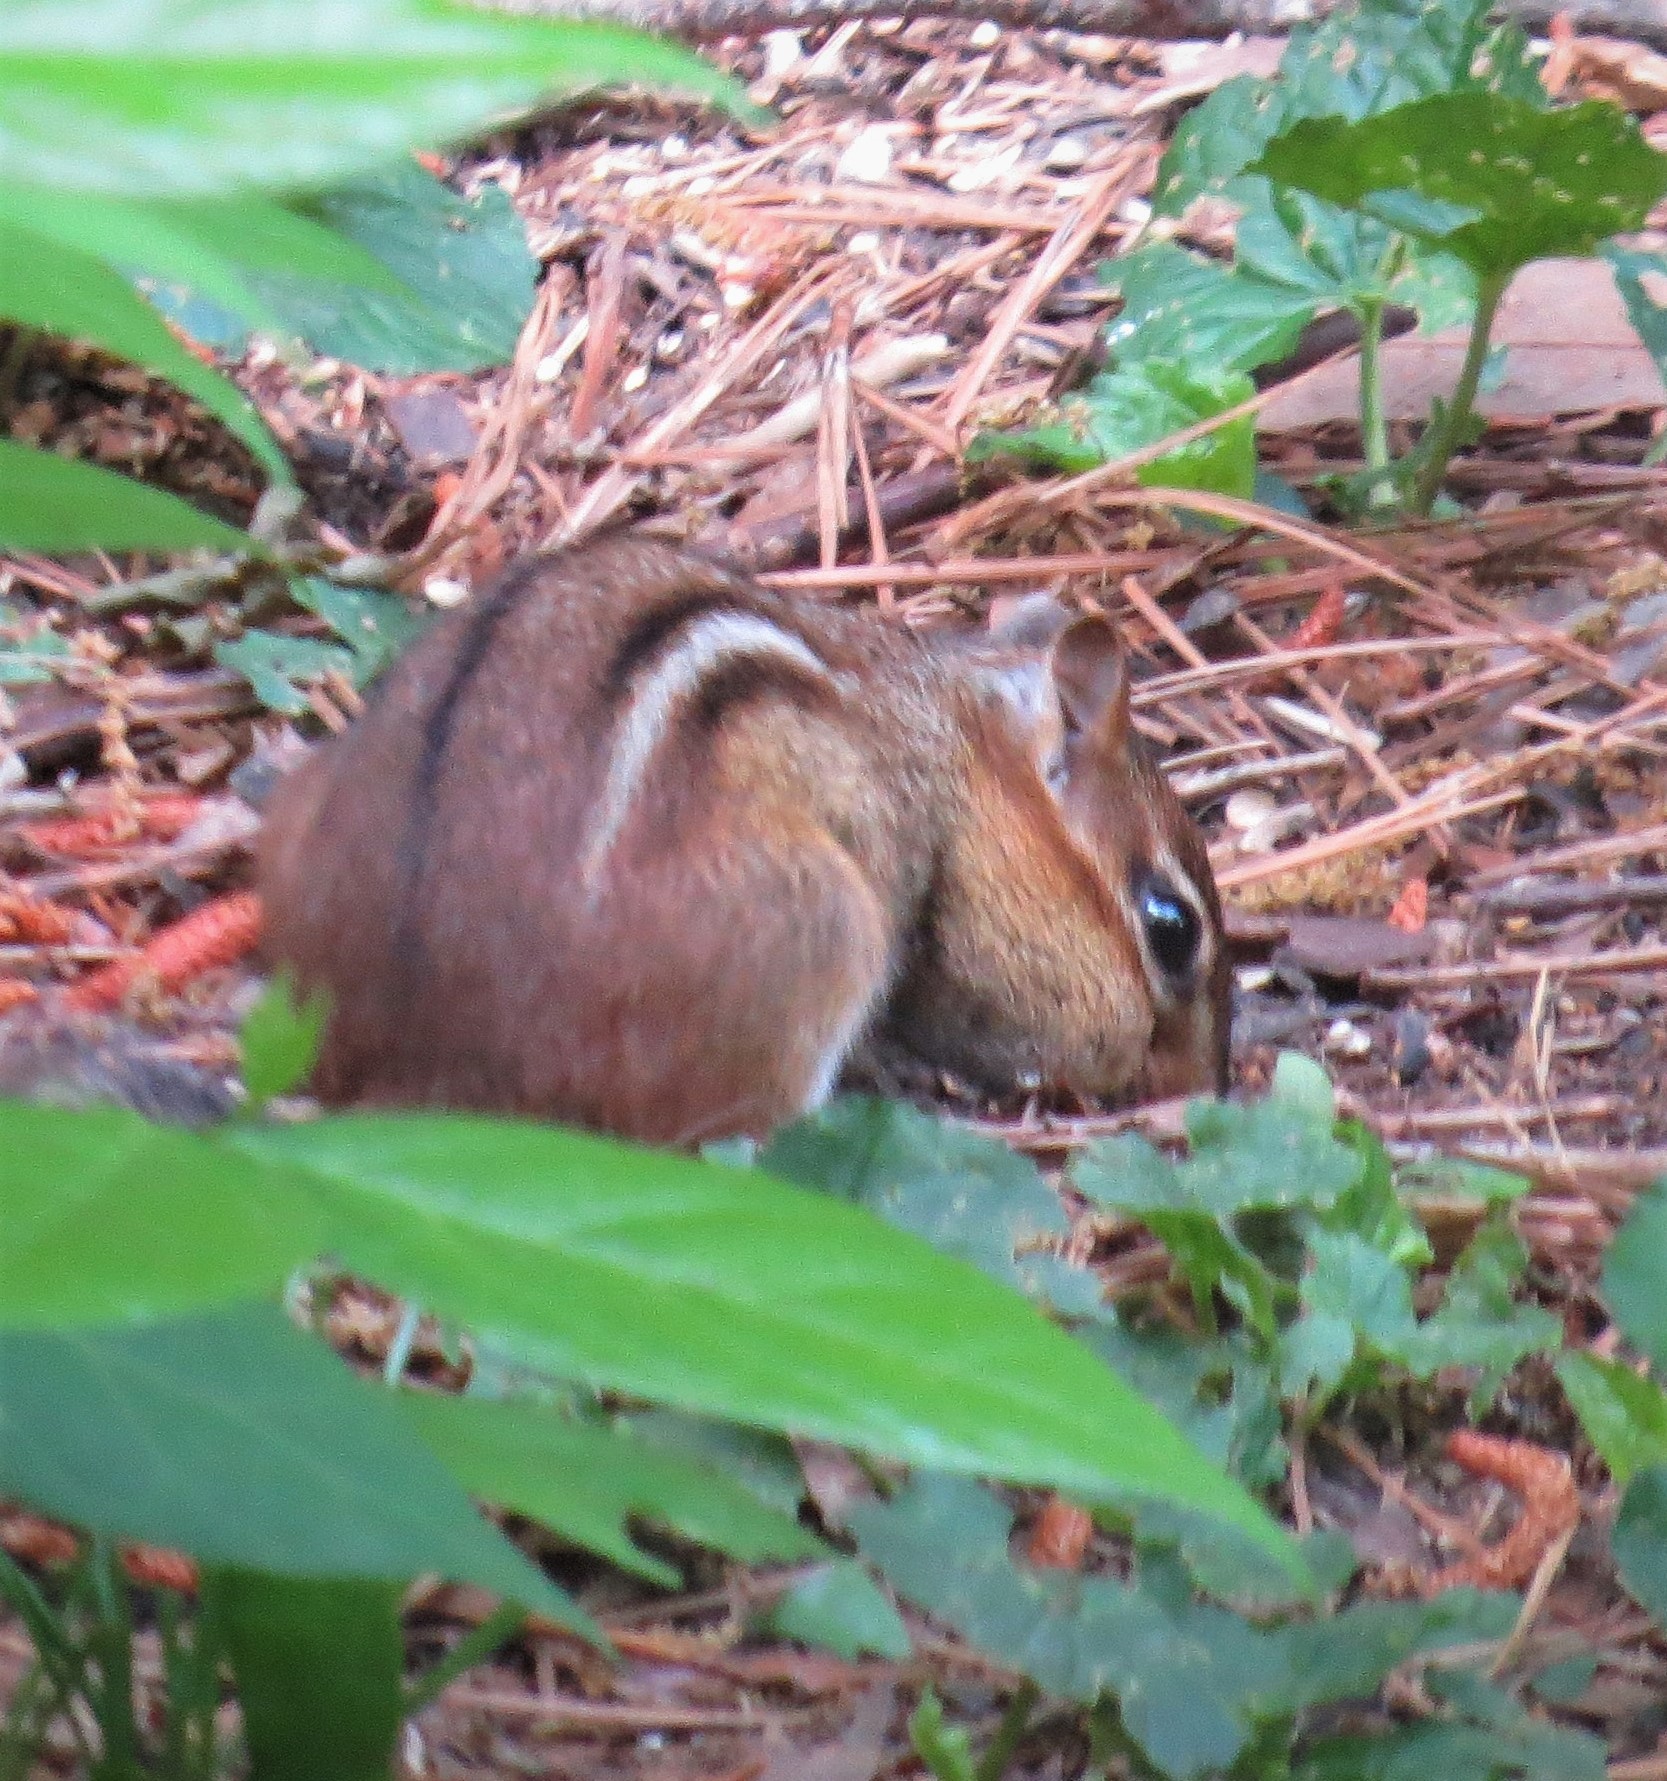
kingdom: Animalia
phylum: Chordata
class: Mammalia
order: Rodentia
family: Sciuridae
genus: Tamias
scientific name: Tamias striatus
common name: Eastern chipmunk
